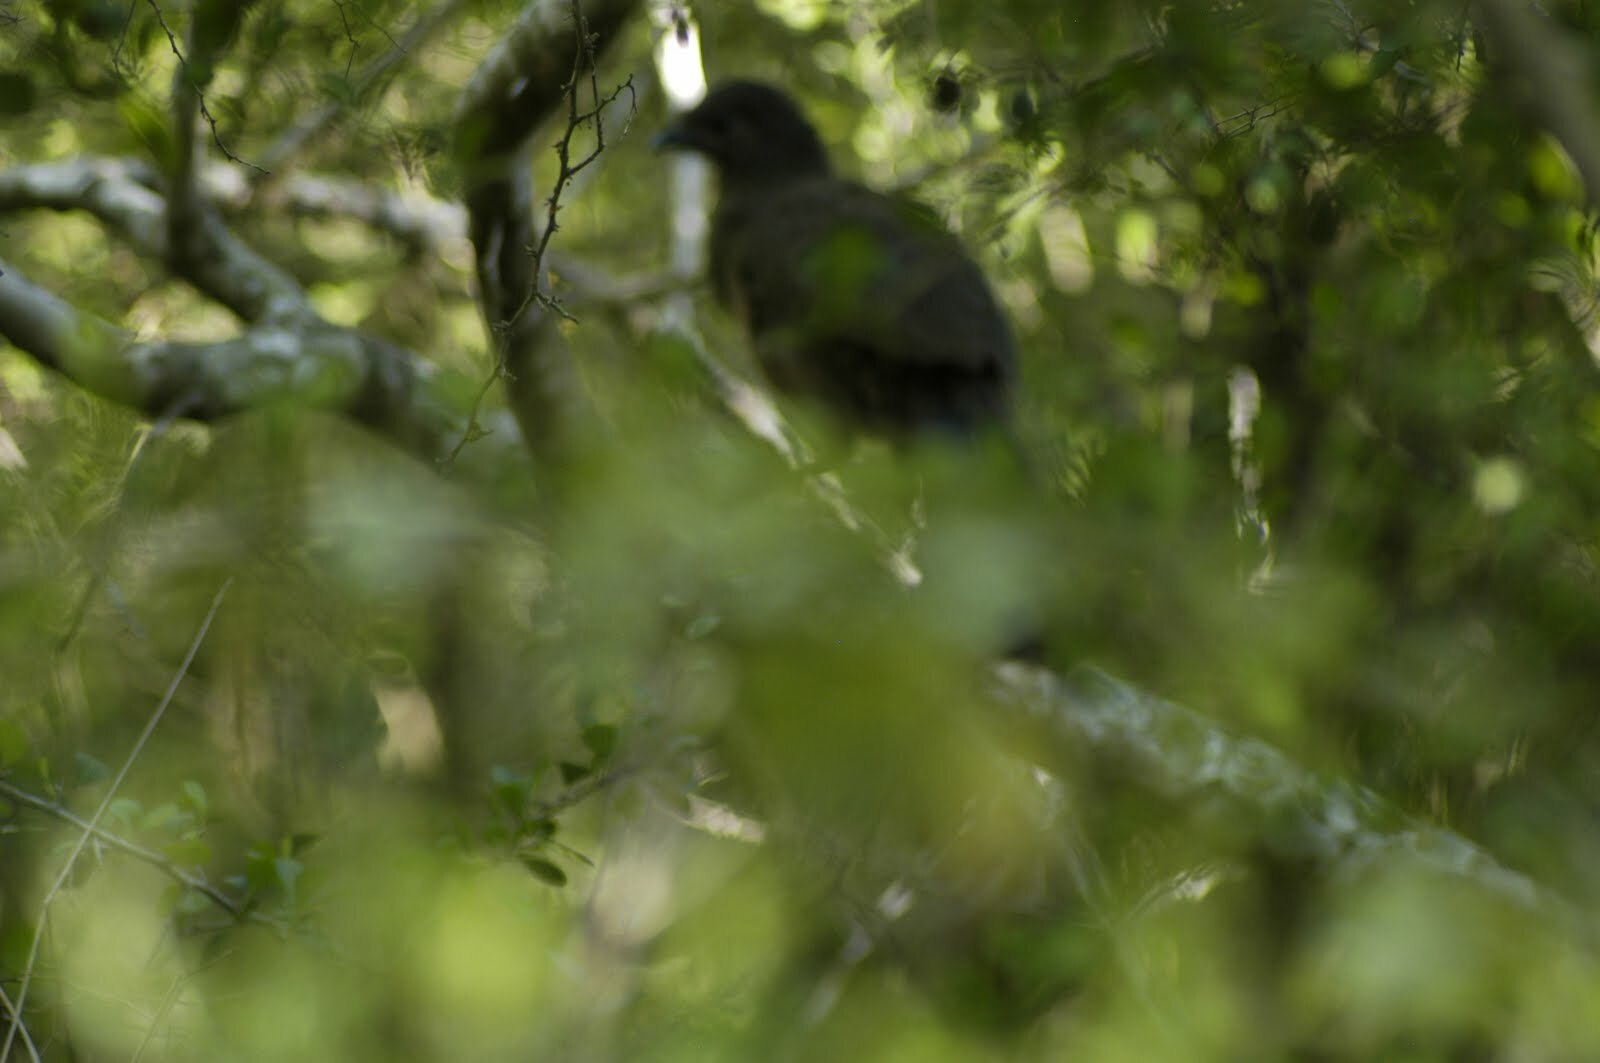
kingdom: Animalia
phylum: Chordata
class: Aves
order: Galliformes
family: Cracidae
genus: Ortalis
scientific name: Ortalis vetula
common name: Plain chachalaca
